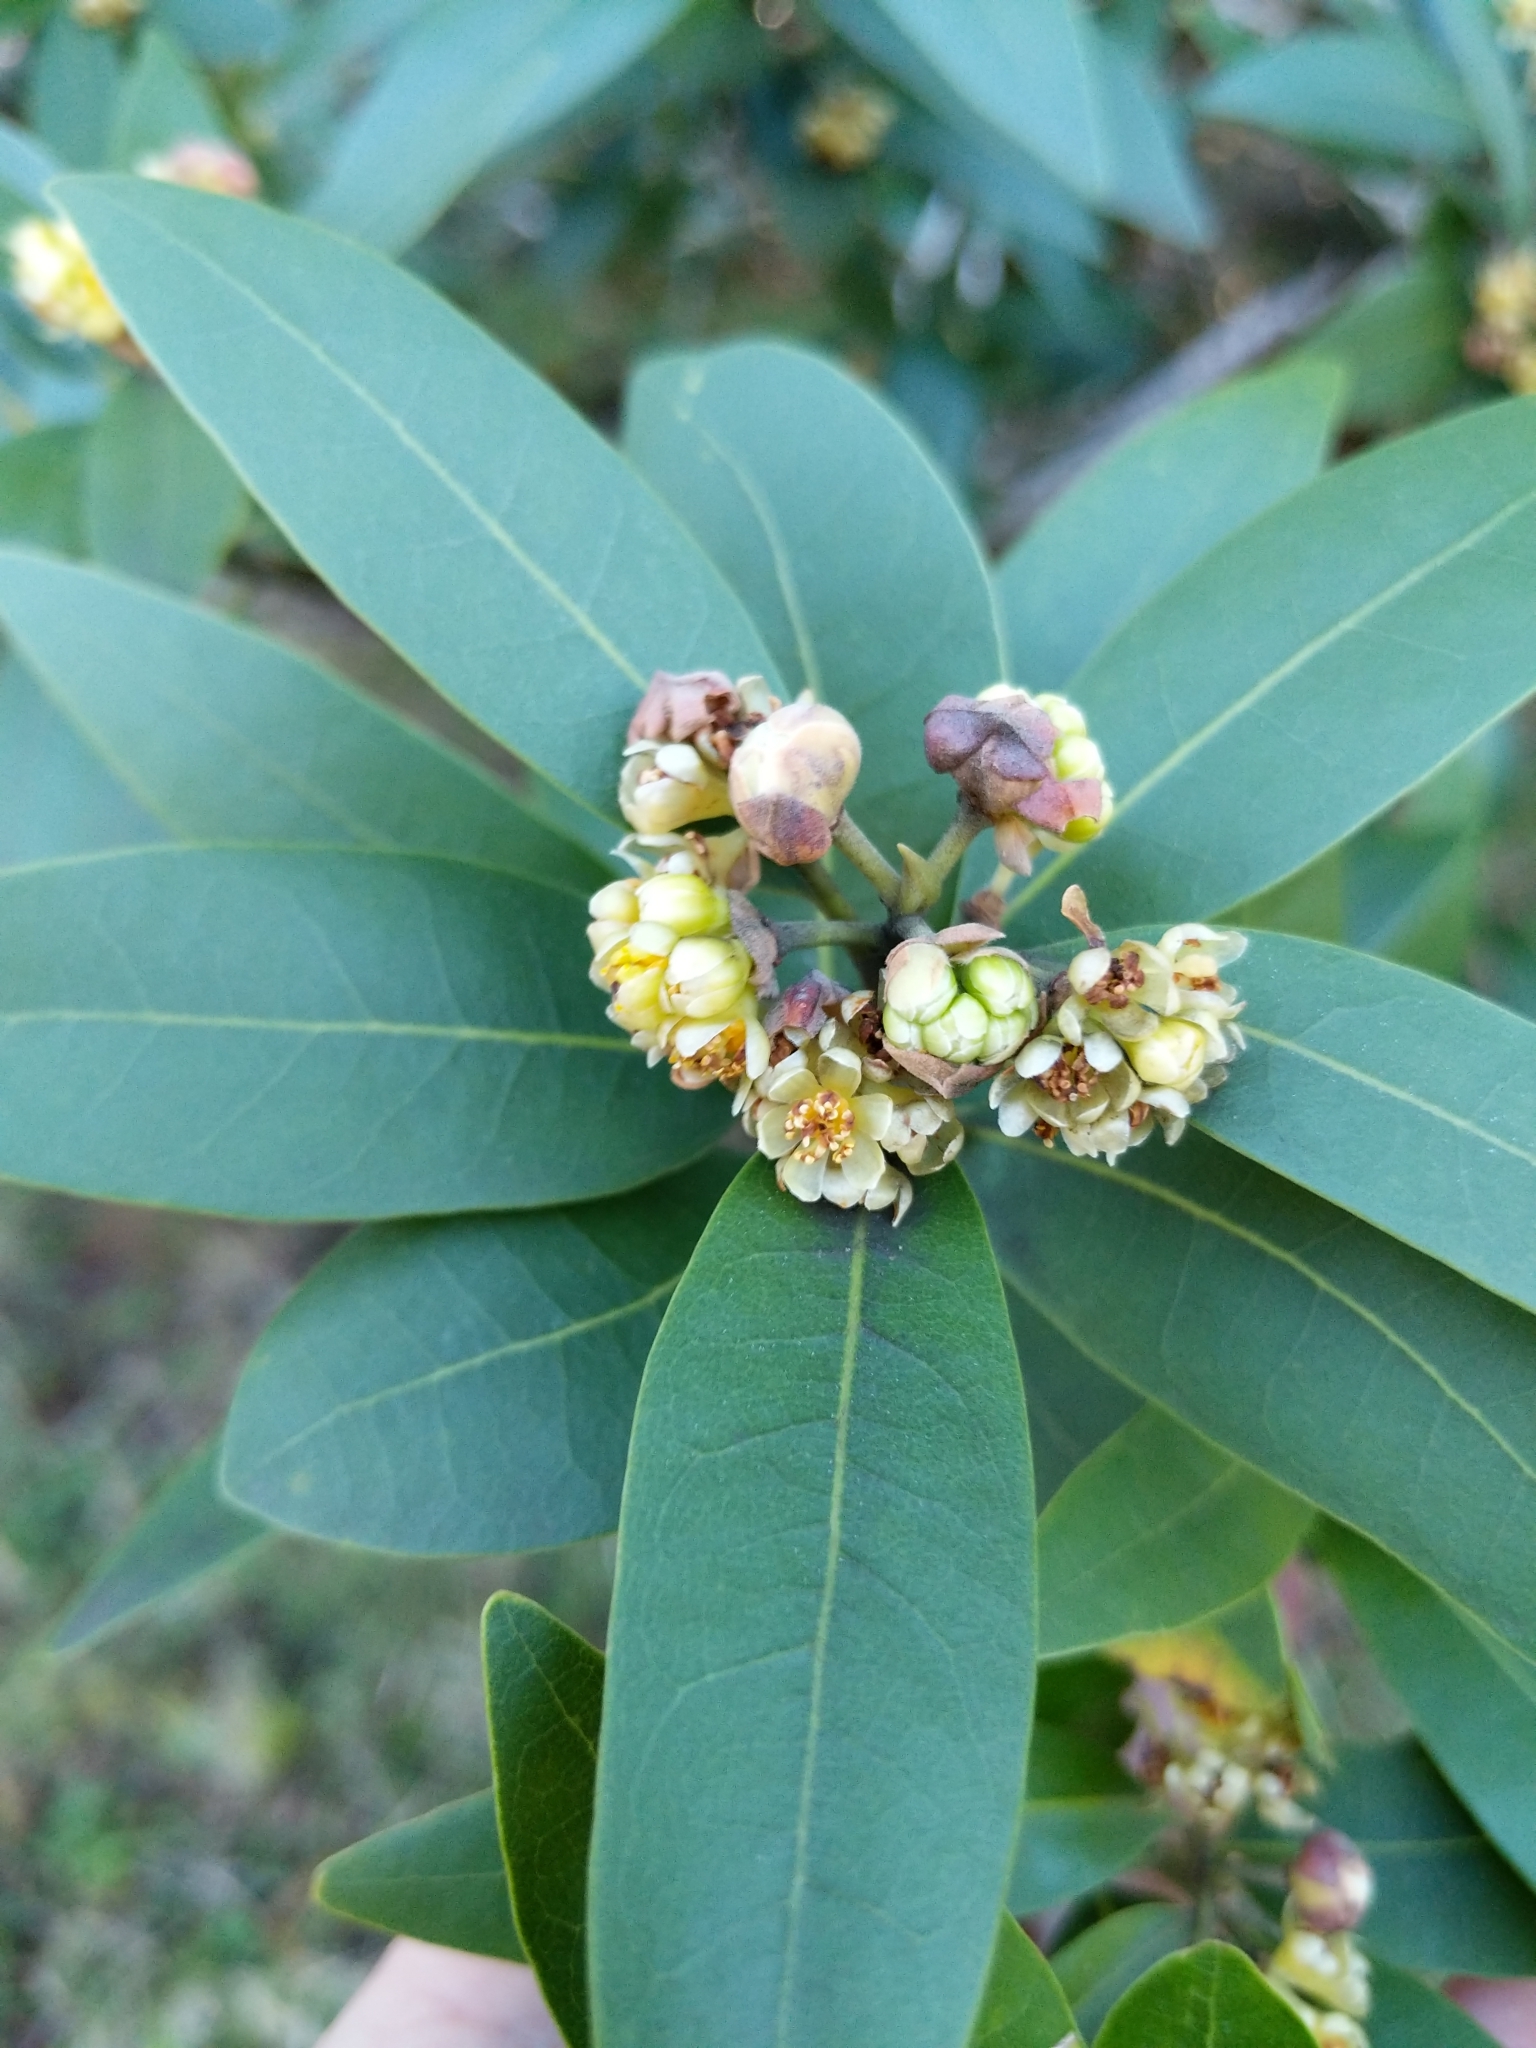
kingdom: Plantae
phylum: Tracheophyta
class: Magnoliopsida
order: Laurales
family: Lauraceae
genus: Umbellularia
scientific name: Umbellularia californica
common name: California bay
